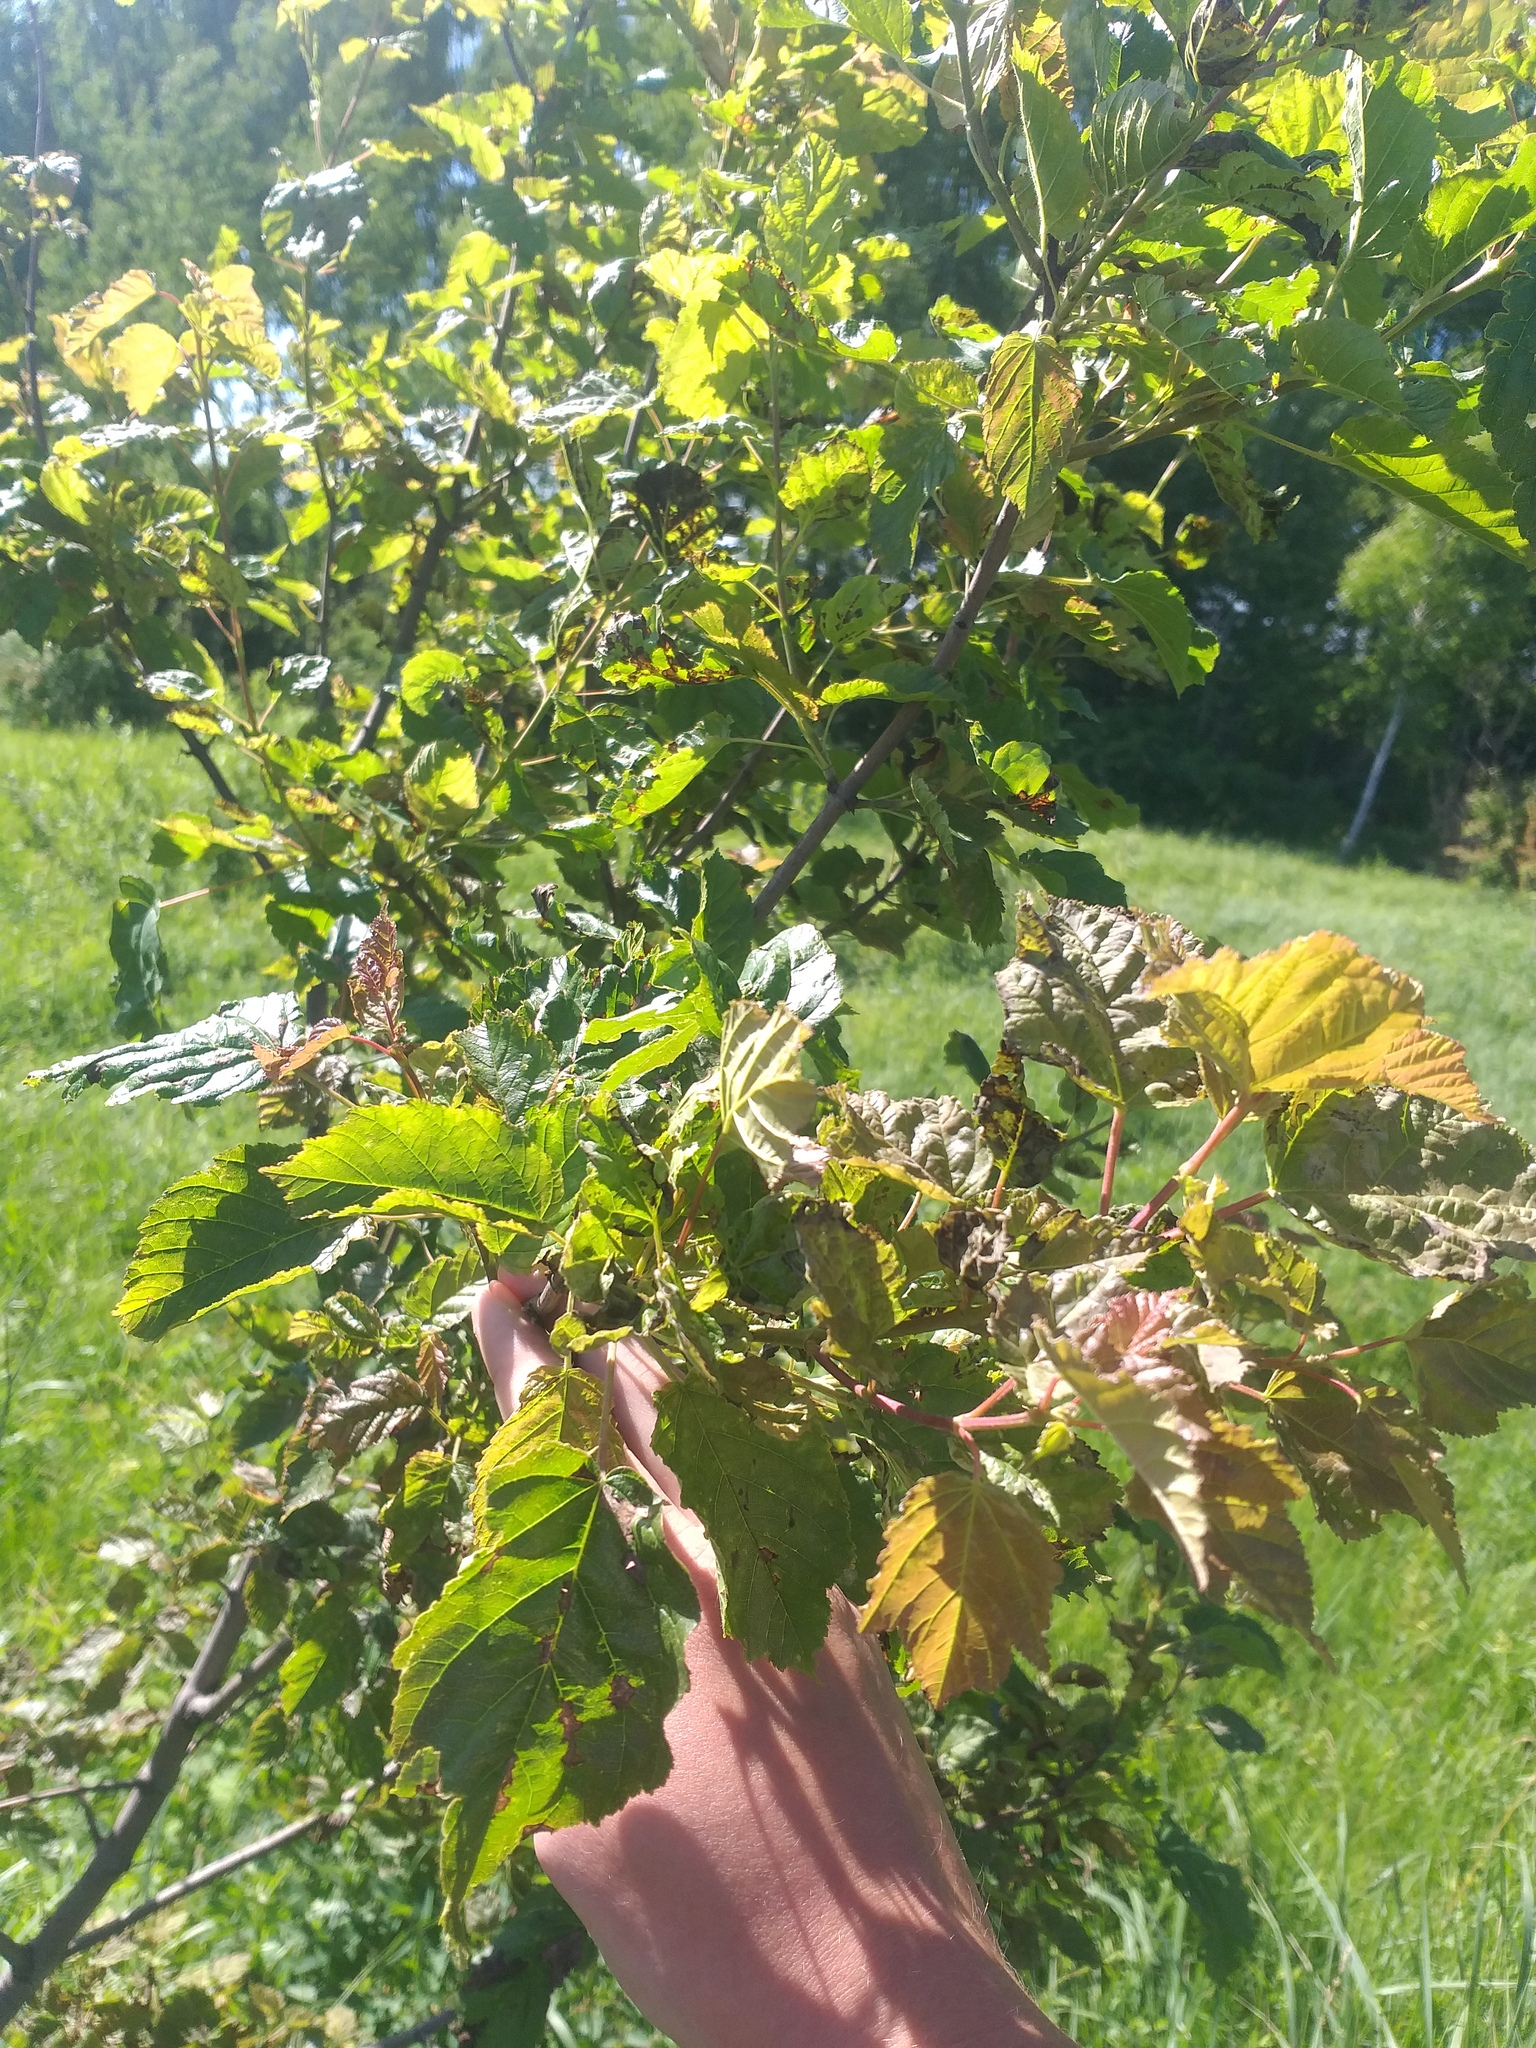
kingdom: Plantae
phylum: Tracheophyta
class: Magnoliopsida
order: Sapindales
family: Sapindaceae
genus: Acer
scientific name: Acer tataricum
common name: Tartar maple
